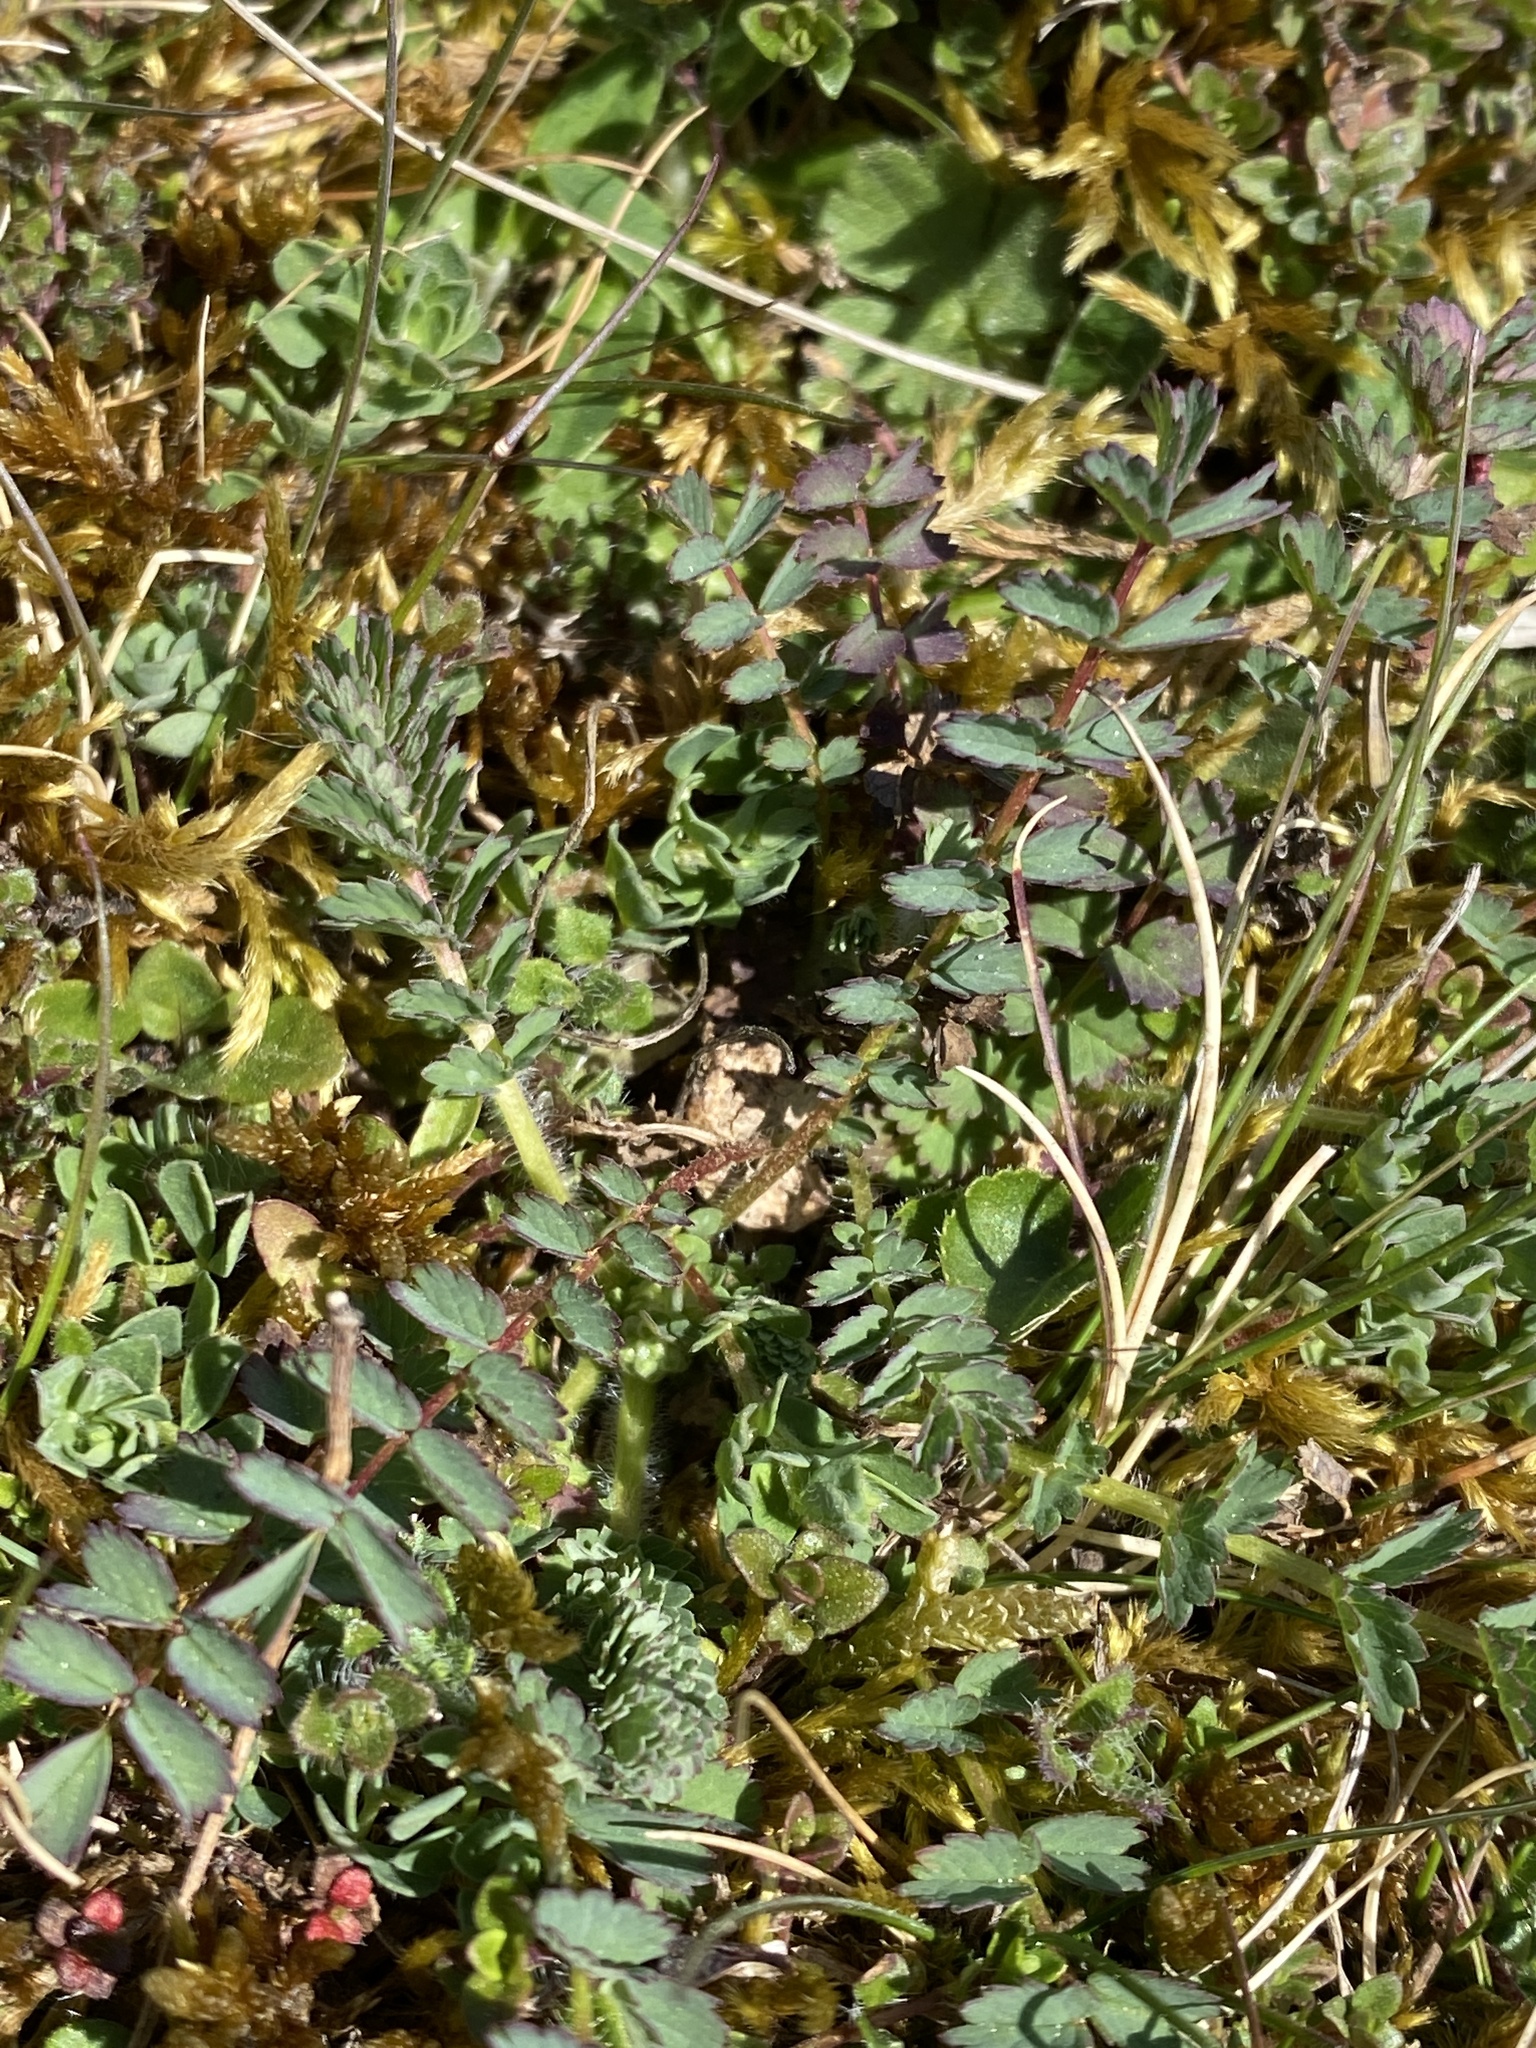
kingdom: Plantae
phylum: Tracheophyta
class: Magnoliopsida
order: Rosales
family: Rosaceae
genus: Poterium
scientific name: Poterium sanguisorba
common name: Salad burnet
